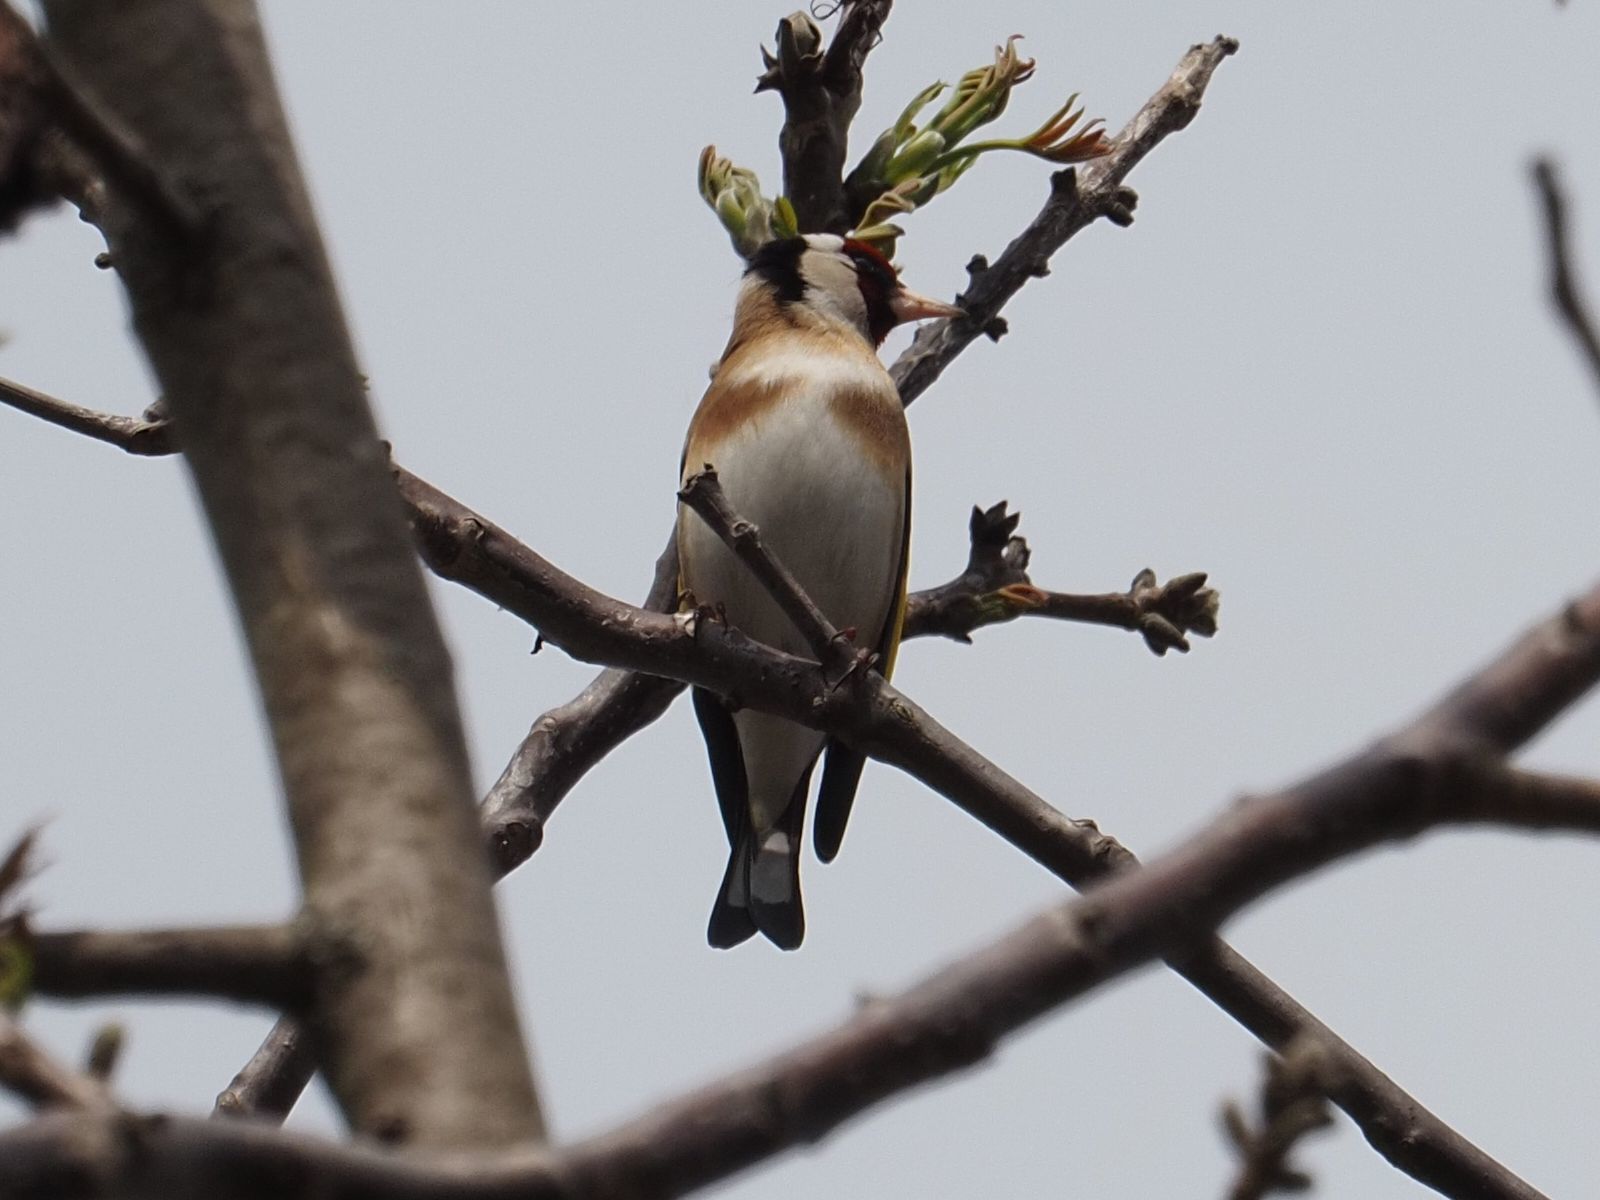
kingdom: Animalia
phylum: Chordata
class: Aves
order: Passeriformes
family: Fringillidae
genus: Carduelis
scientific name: Carduelis carduelis
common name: European goldfinch
